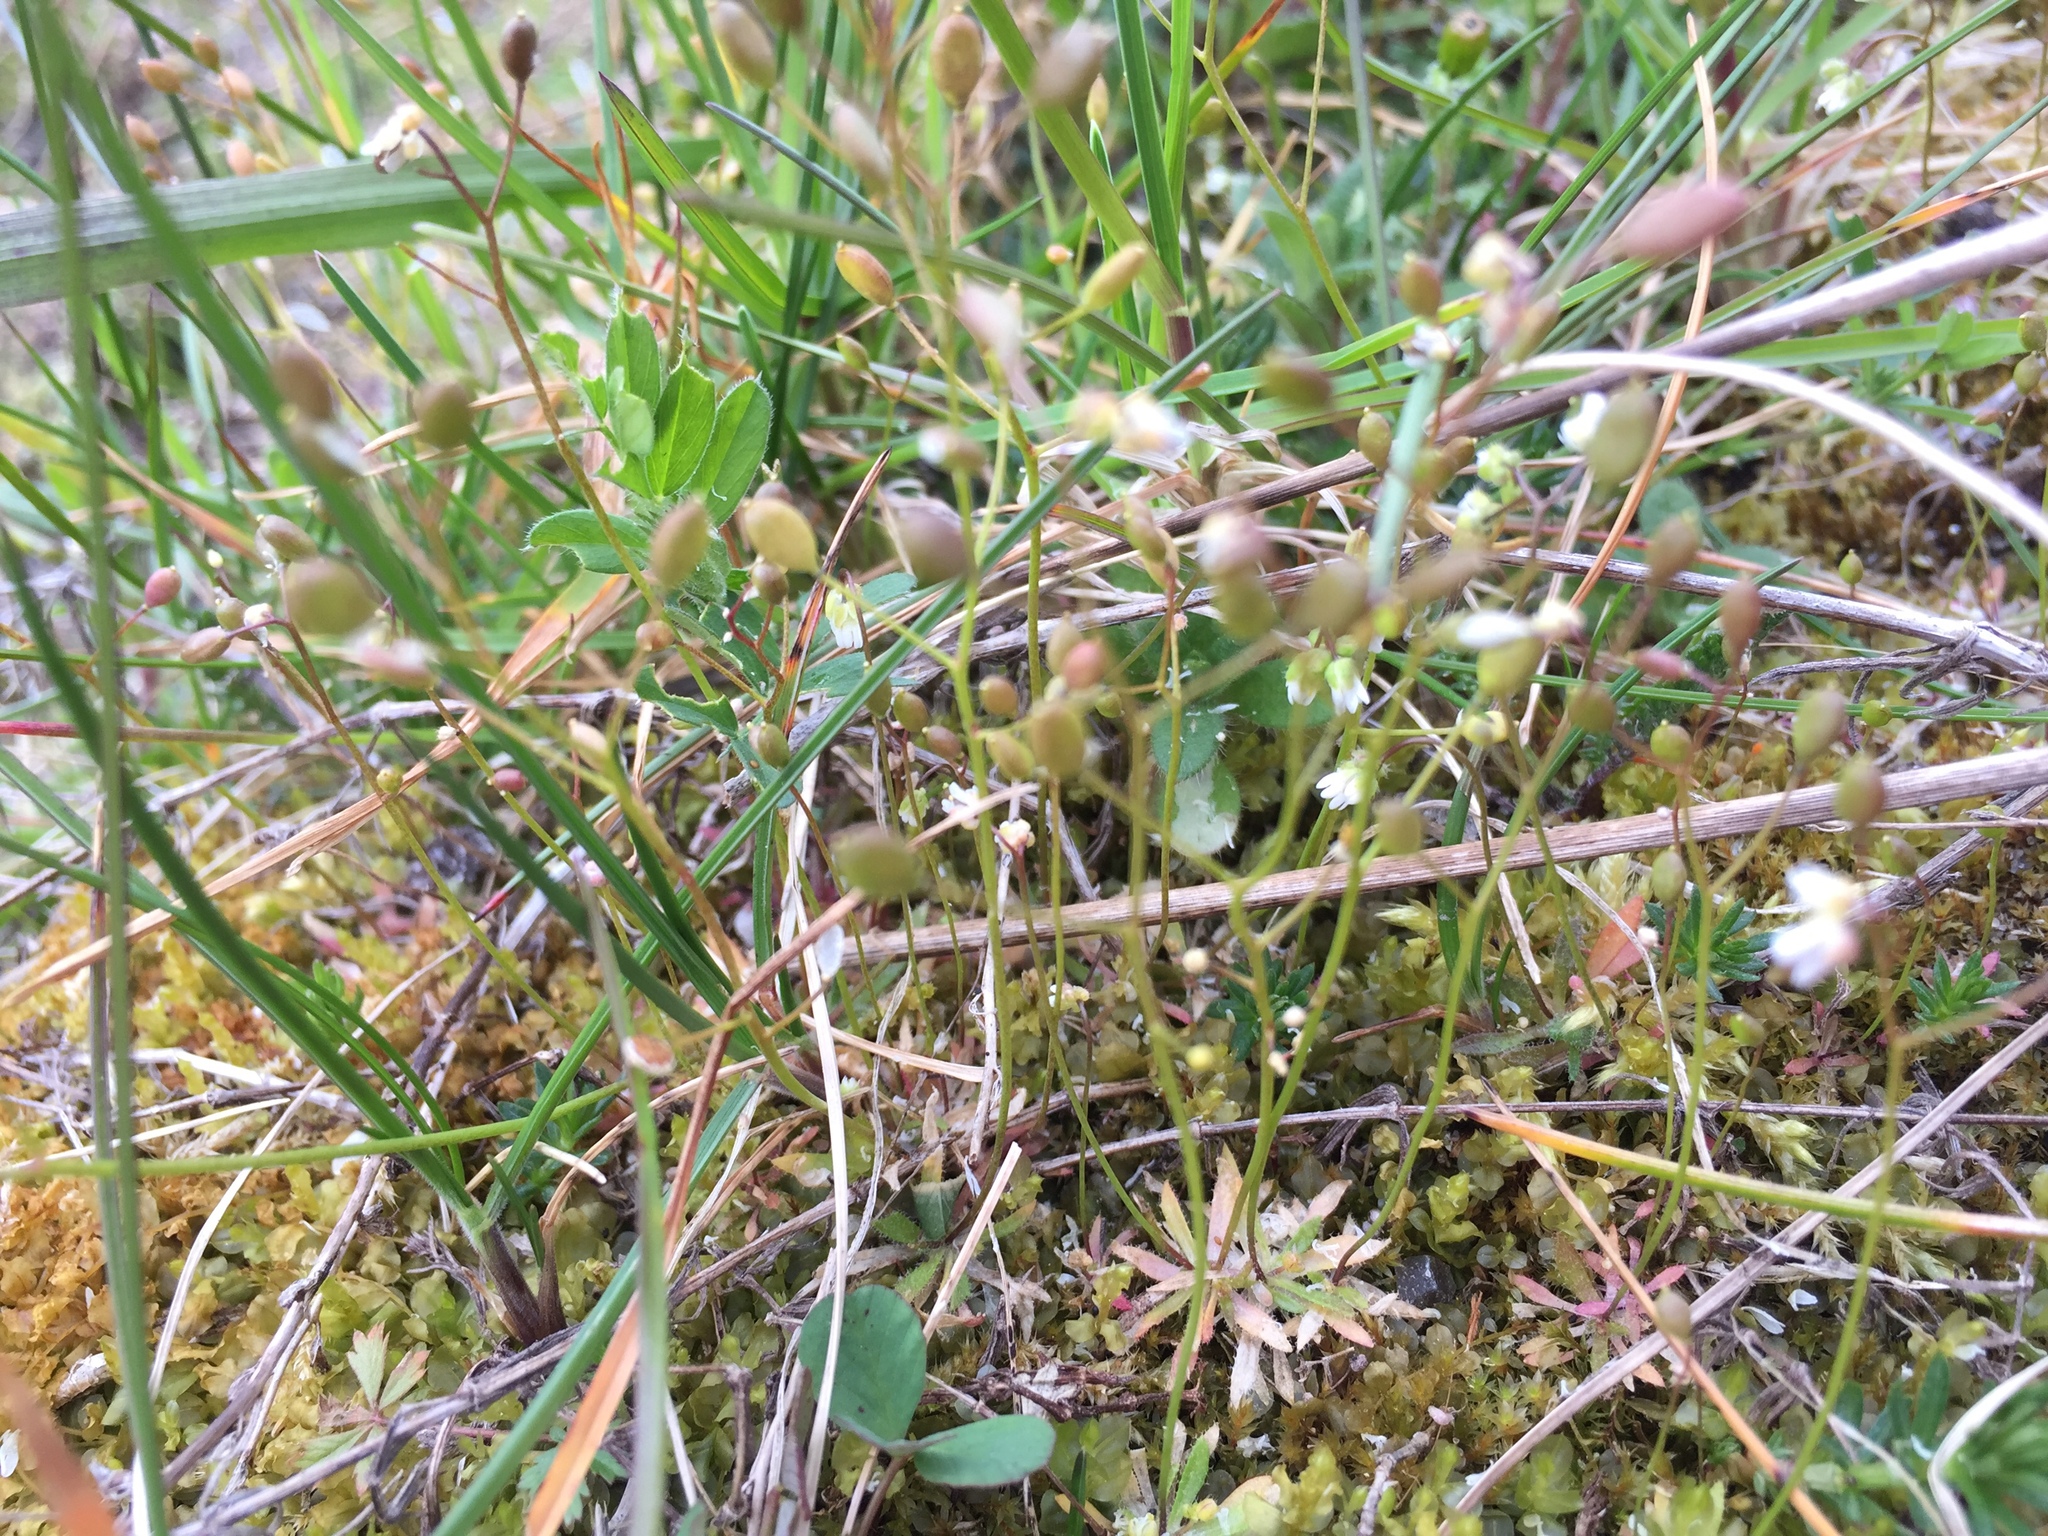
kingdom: Plantae
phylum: Tracheophyta
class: Magnoliopsida
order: Brassicales
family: Brassicaceae
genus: Draba
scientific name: Draba verna
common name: Spring draba
